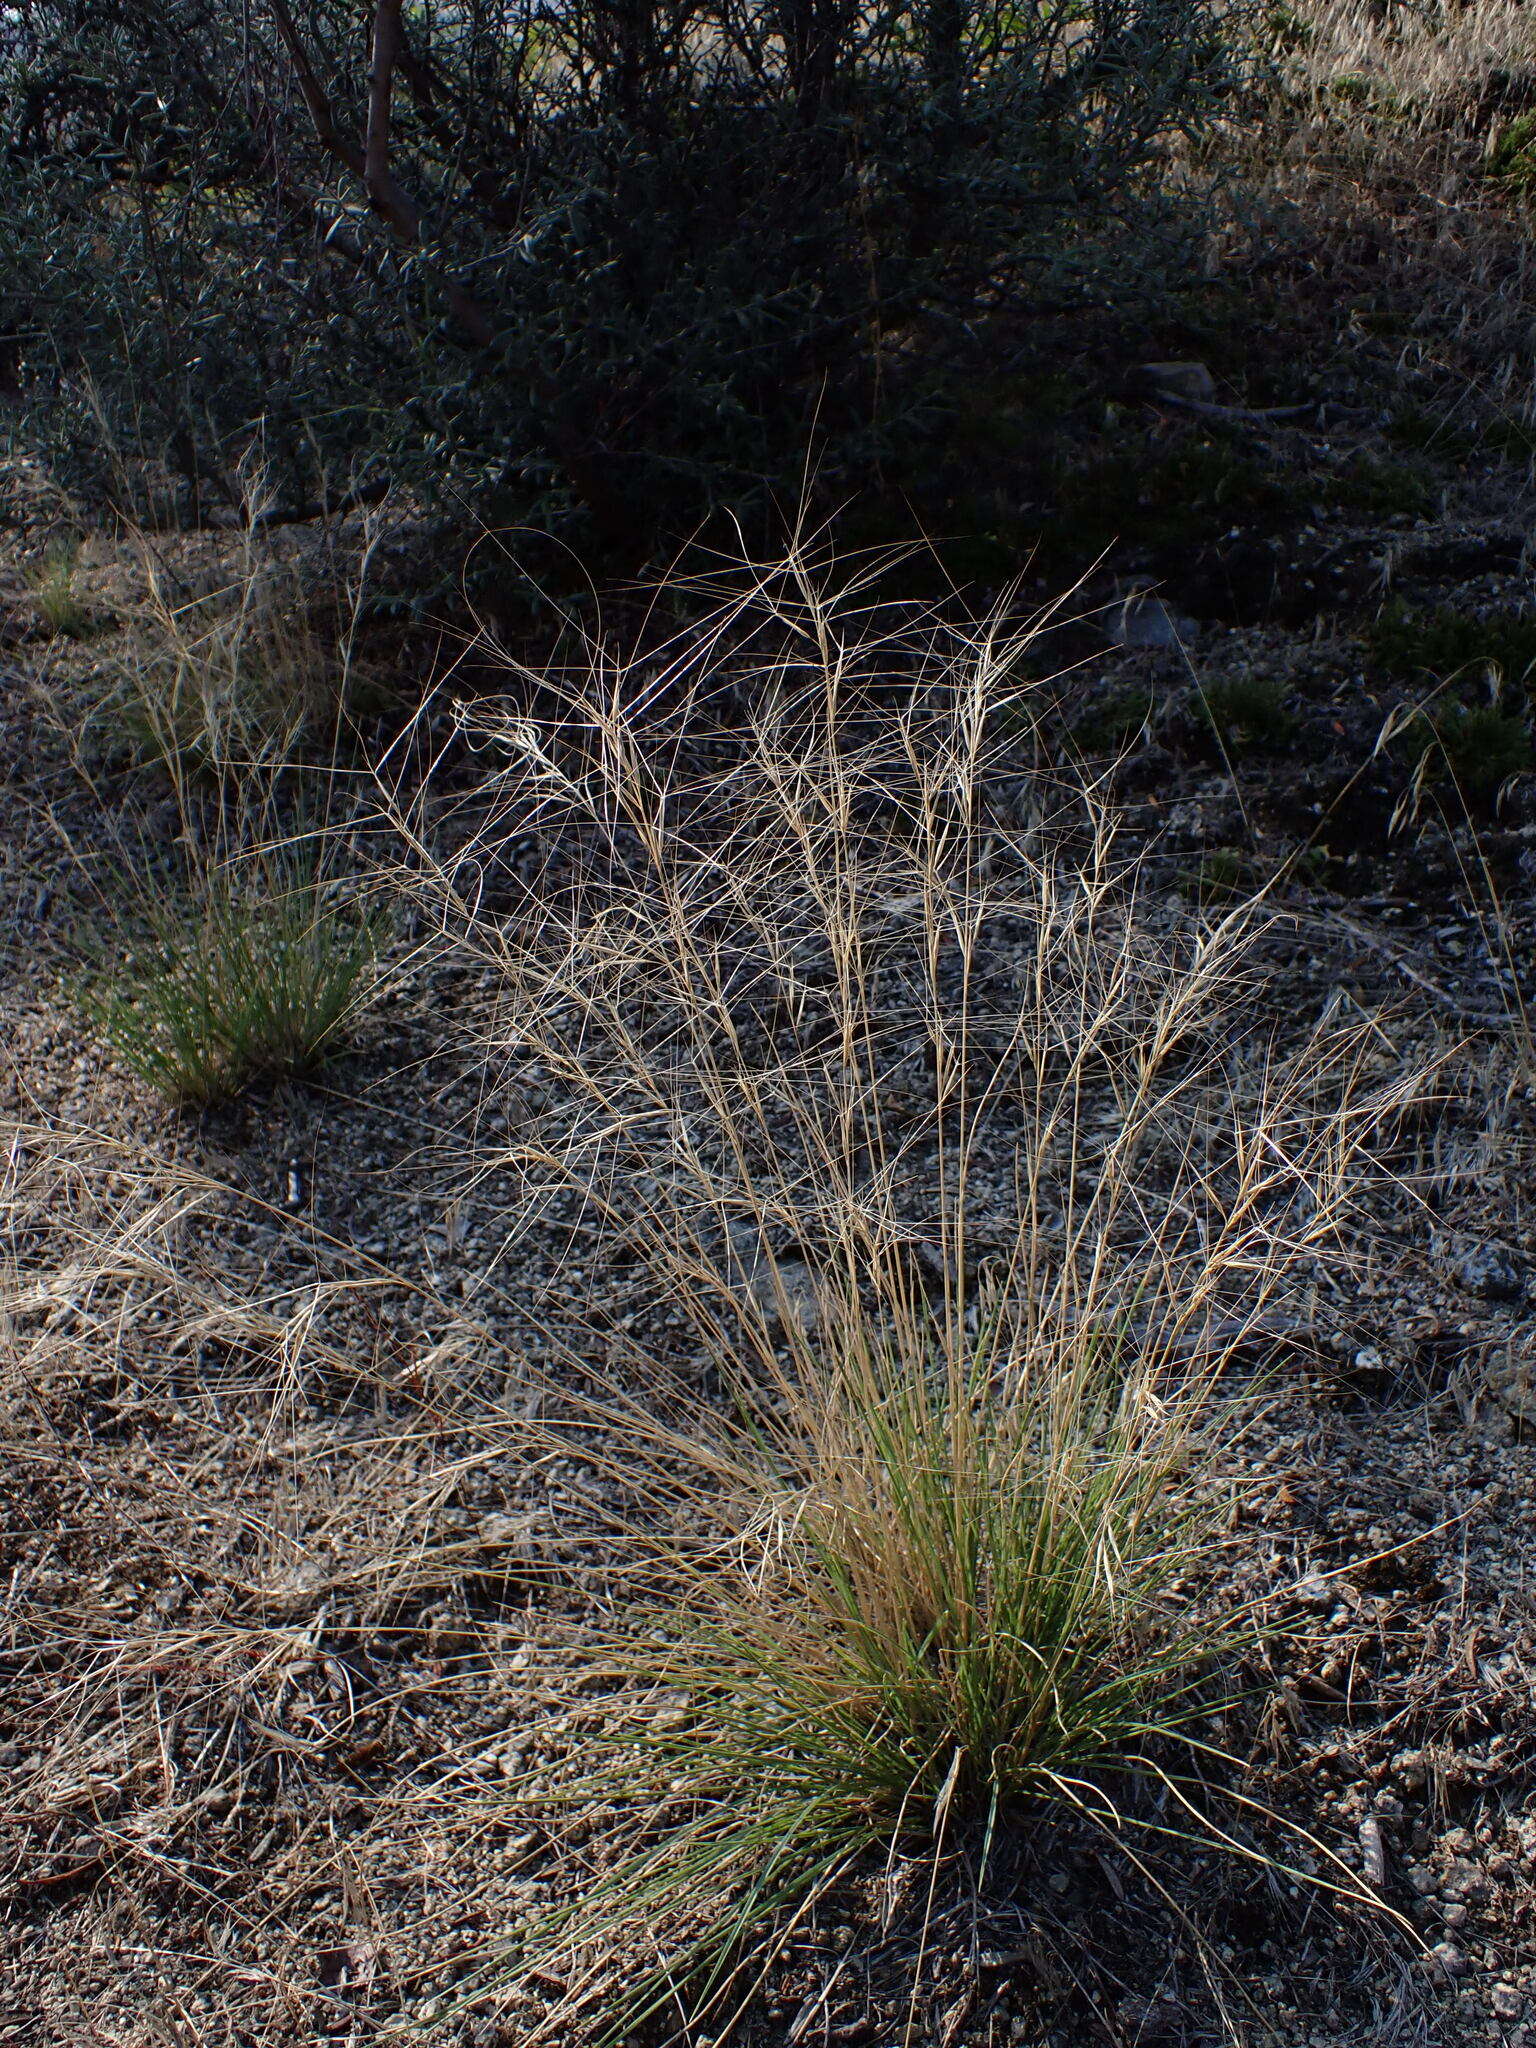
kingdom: Plantae
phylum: Tracheophyta
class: Liliopsida
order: Poales
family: Poaceae
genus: Aristida
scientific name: Aristida purpurea
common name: Purple threeawn
